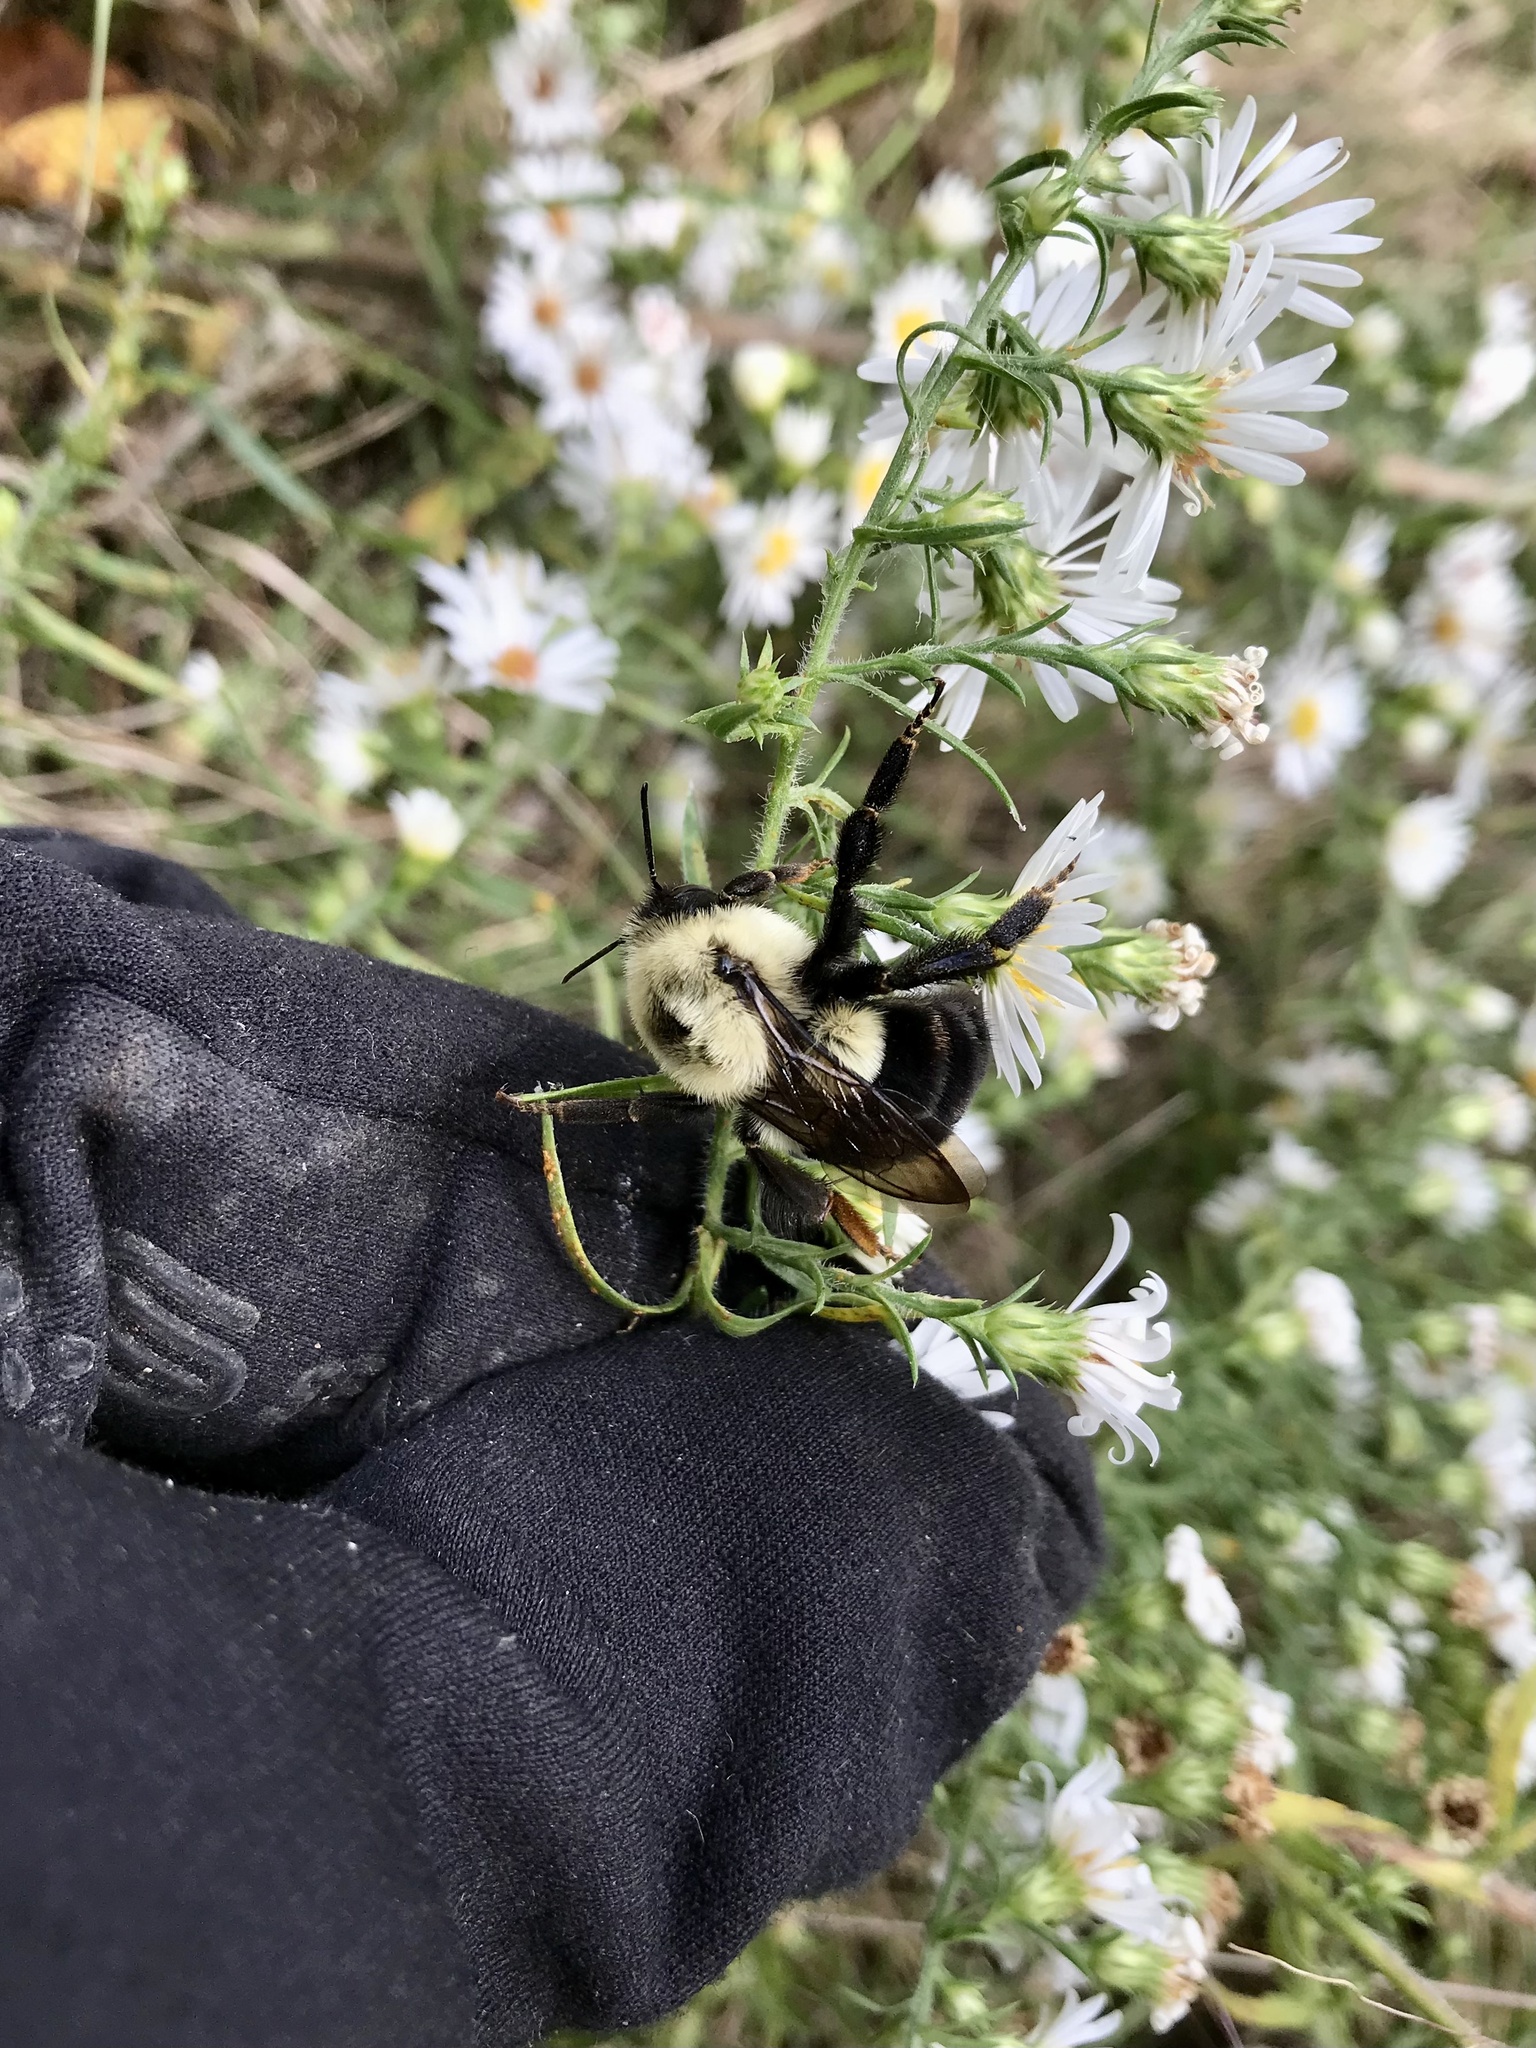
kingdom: Animalia
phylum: Arthropoda
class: Insecta
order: Hymenoptera
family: Apidae
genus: Bombus
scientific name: Bombus impatiens
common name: Common eastern bumble bee
